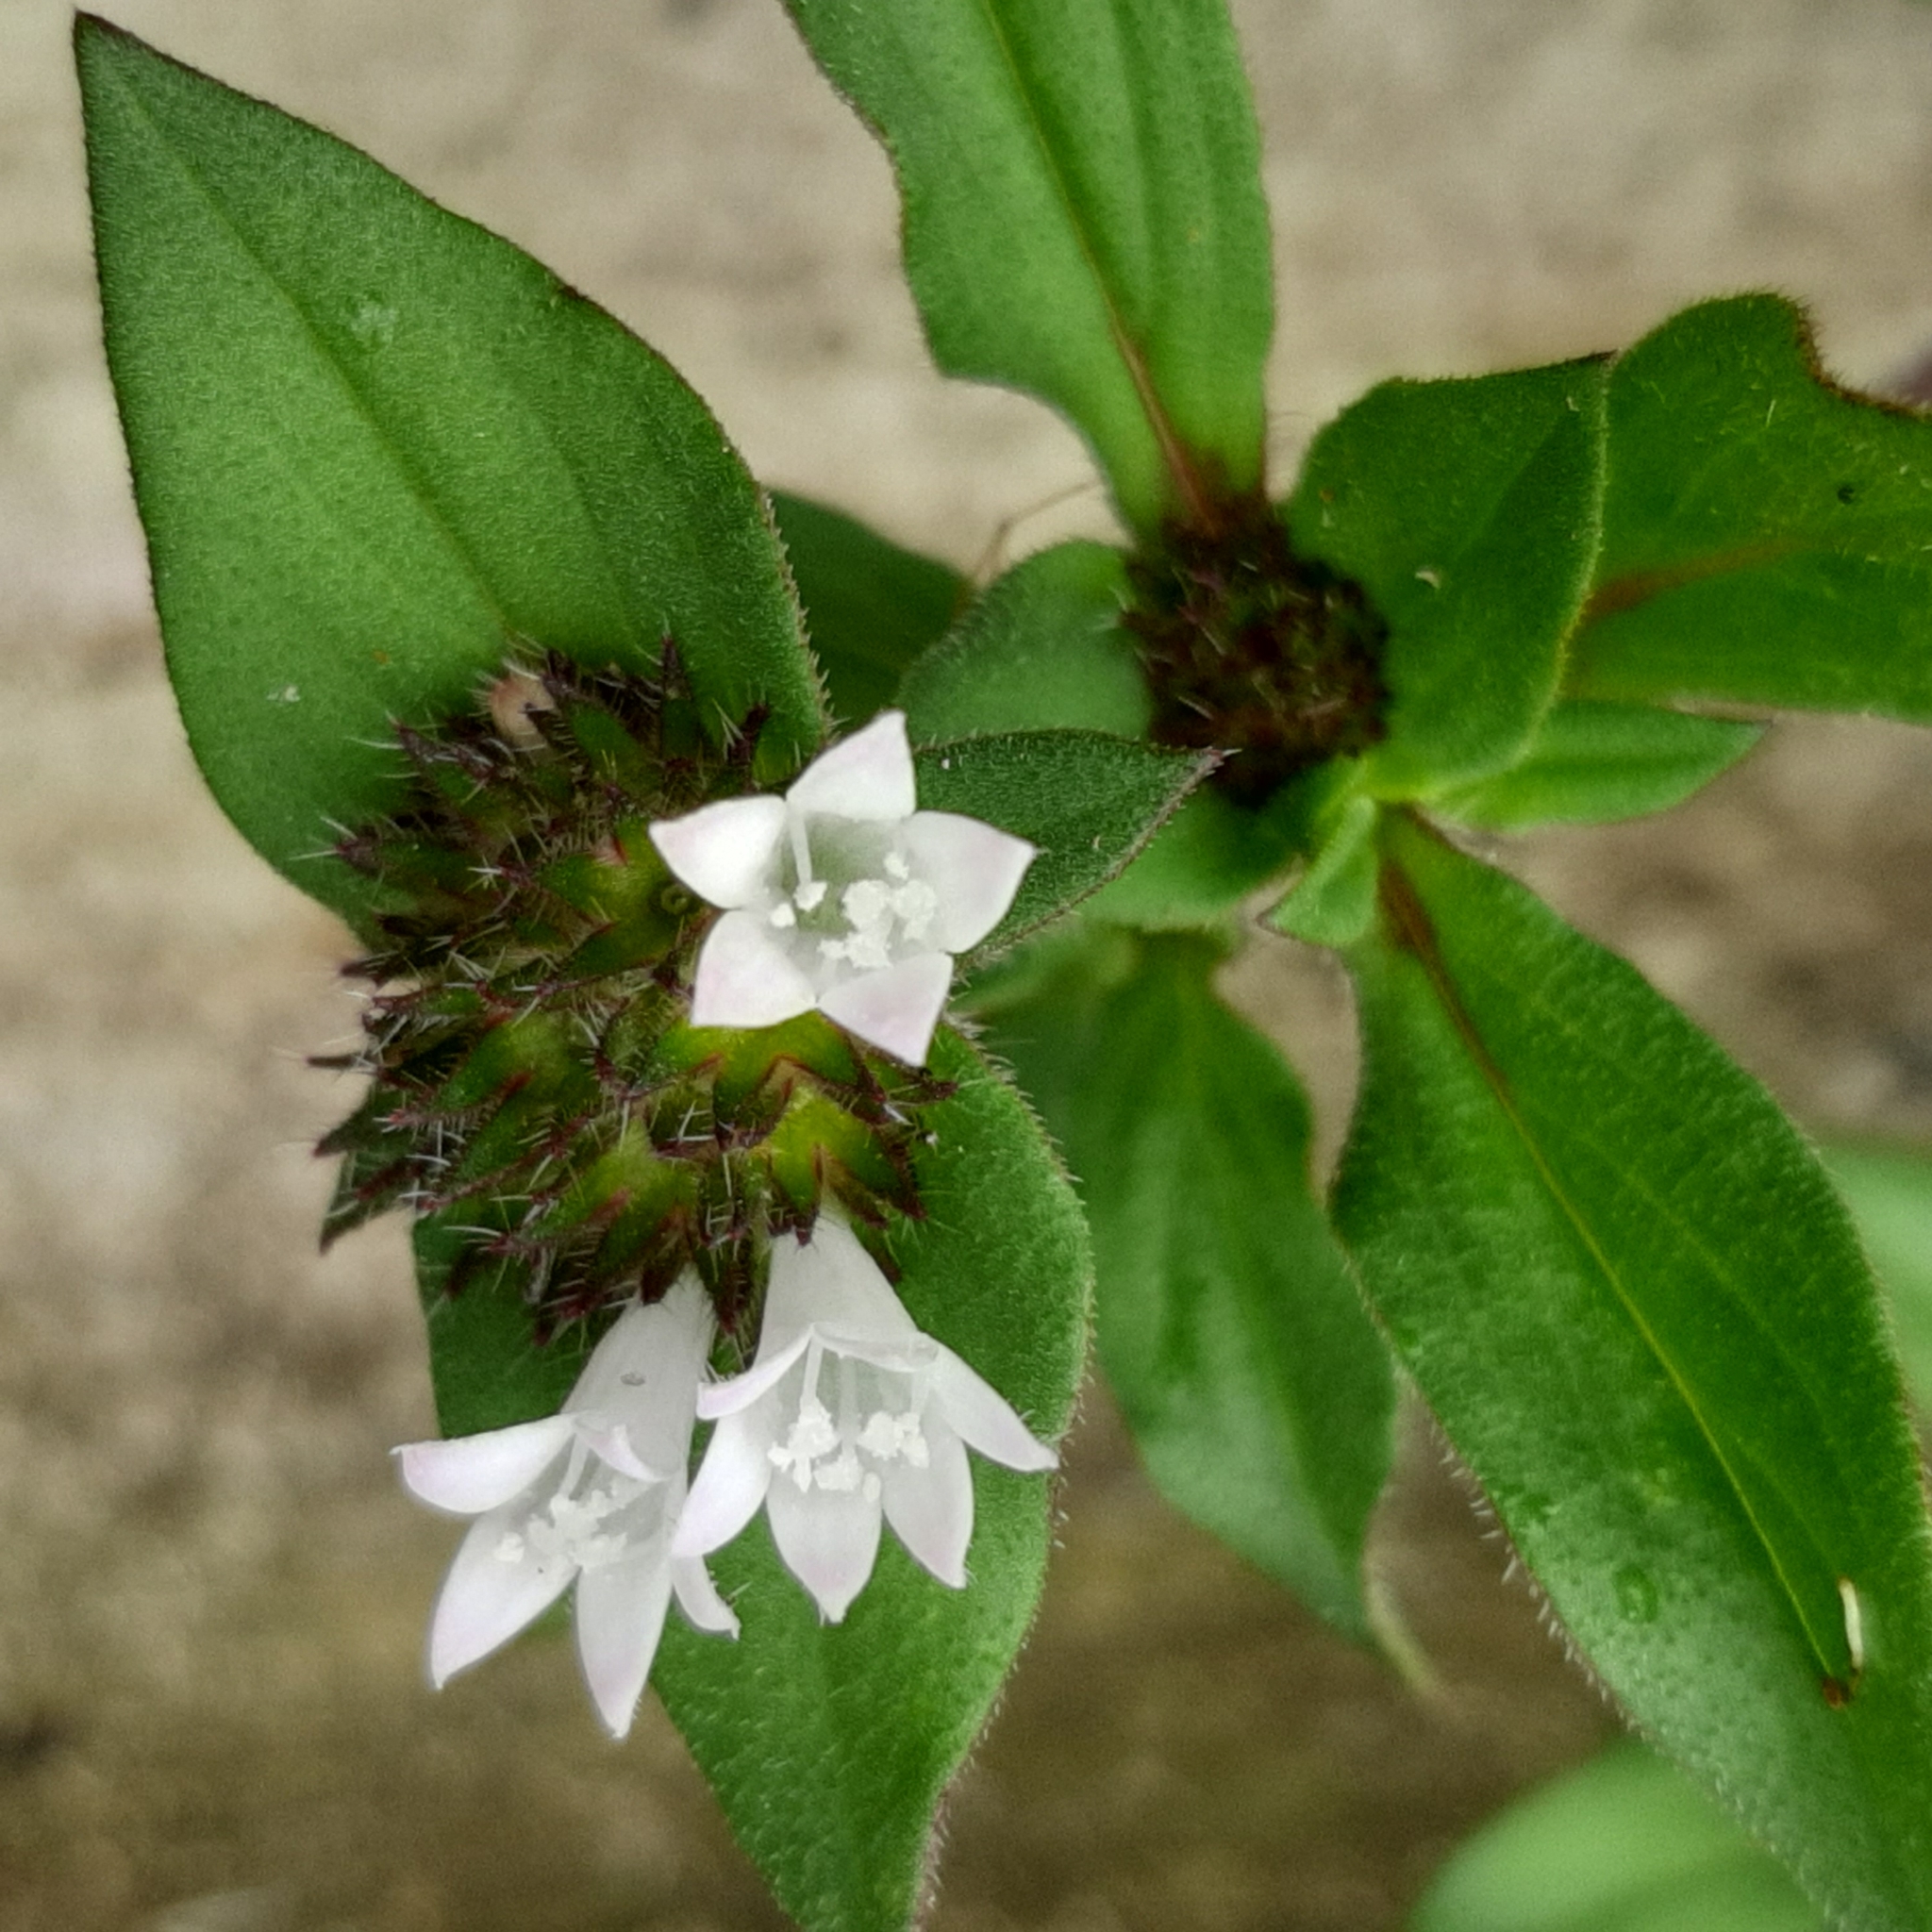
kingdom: Plantae
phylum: Tracheophyta
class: Magnoliopsida
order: Gentianales
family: Rubiaceae
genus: Richardia
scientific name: Richardia scabra
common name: Rough mexican clover
